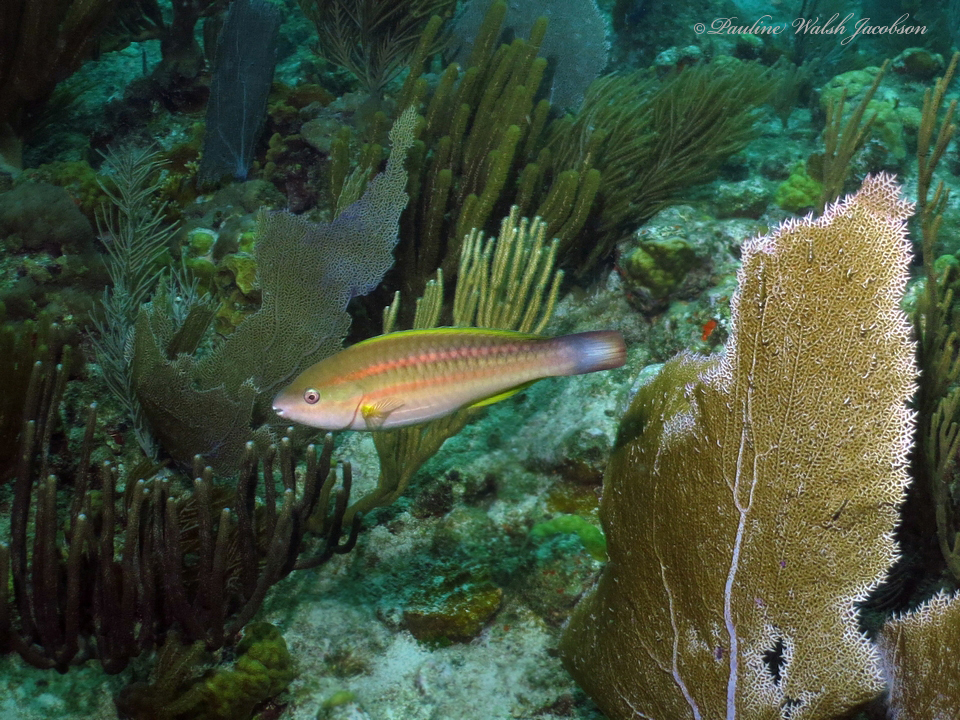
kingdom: Animalia
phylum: Chordata
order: Perciformes
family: Scaridae
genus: Scarus
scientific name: Scarus taeniopterus
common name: Princess parrotfish
